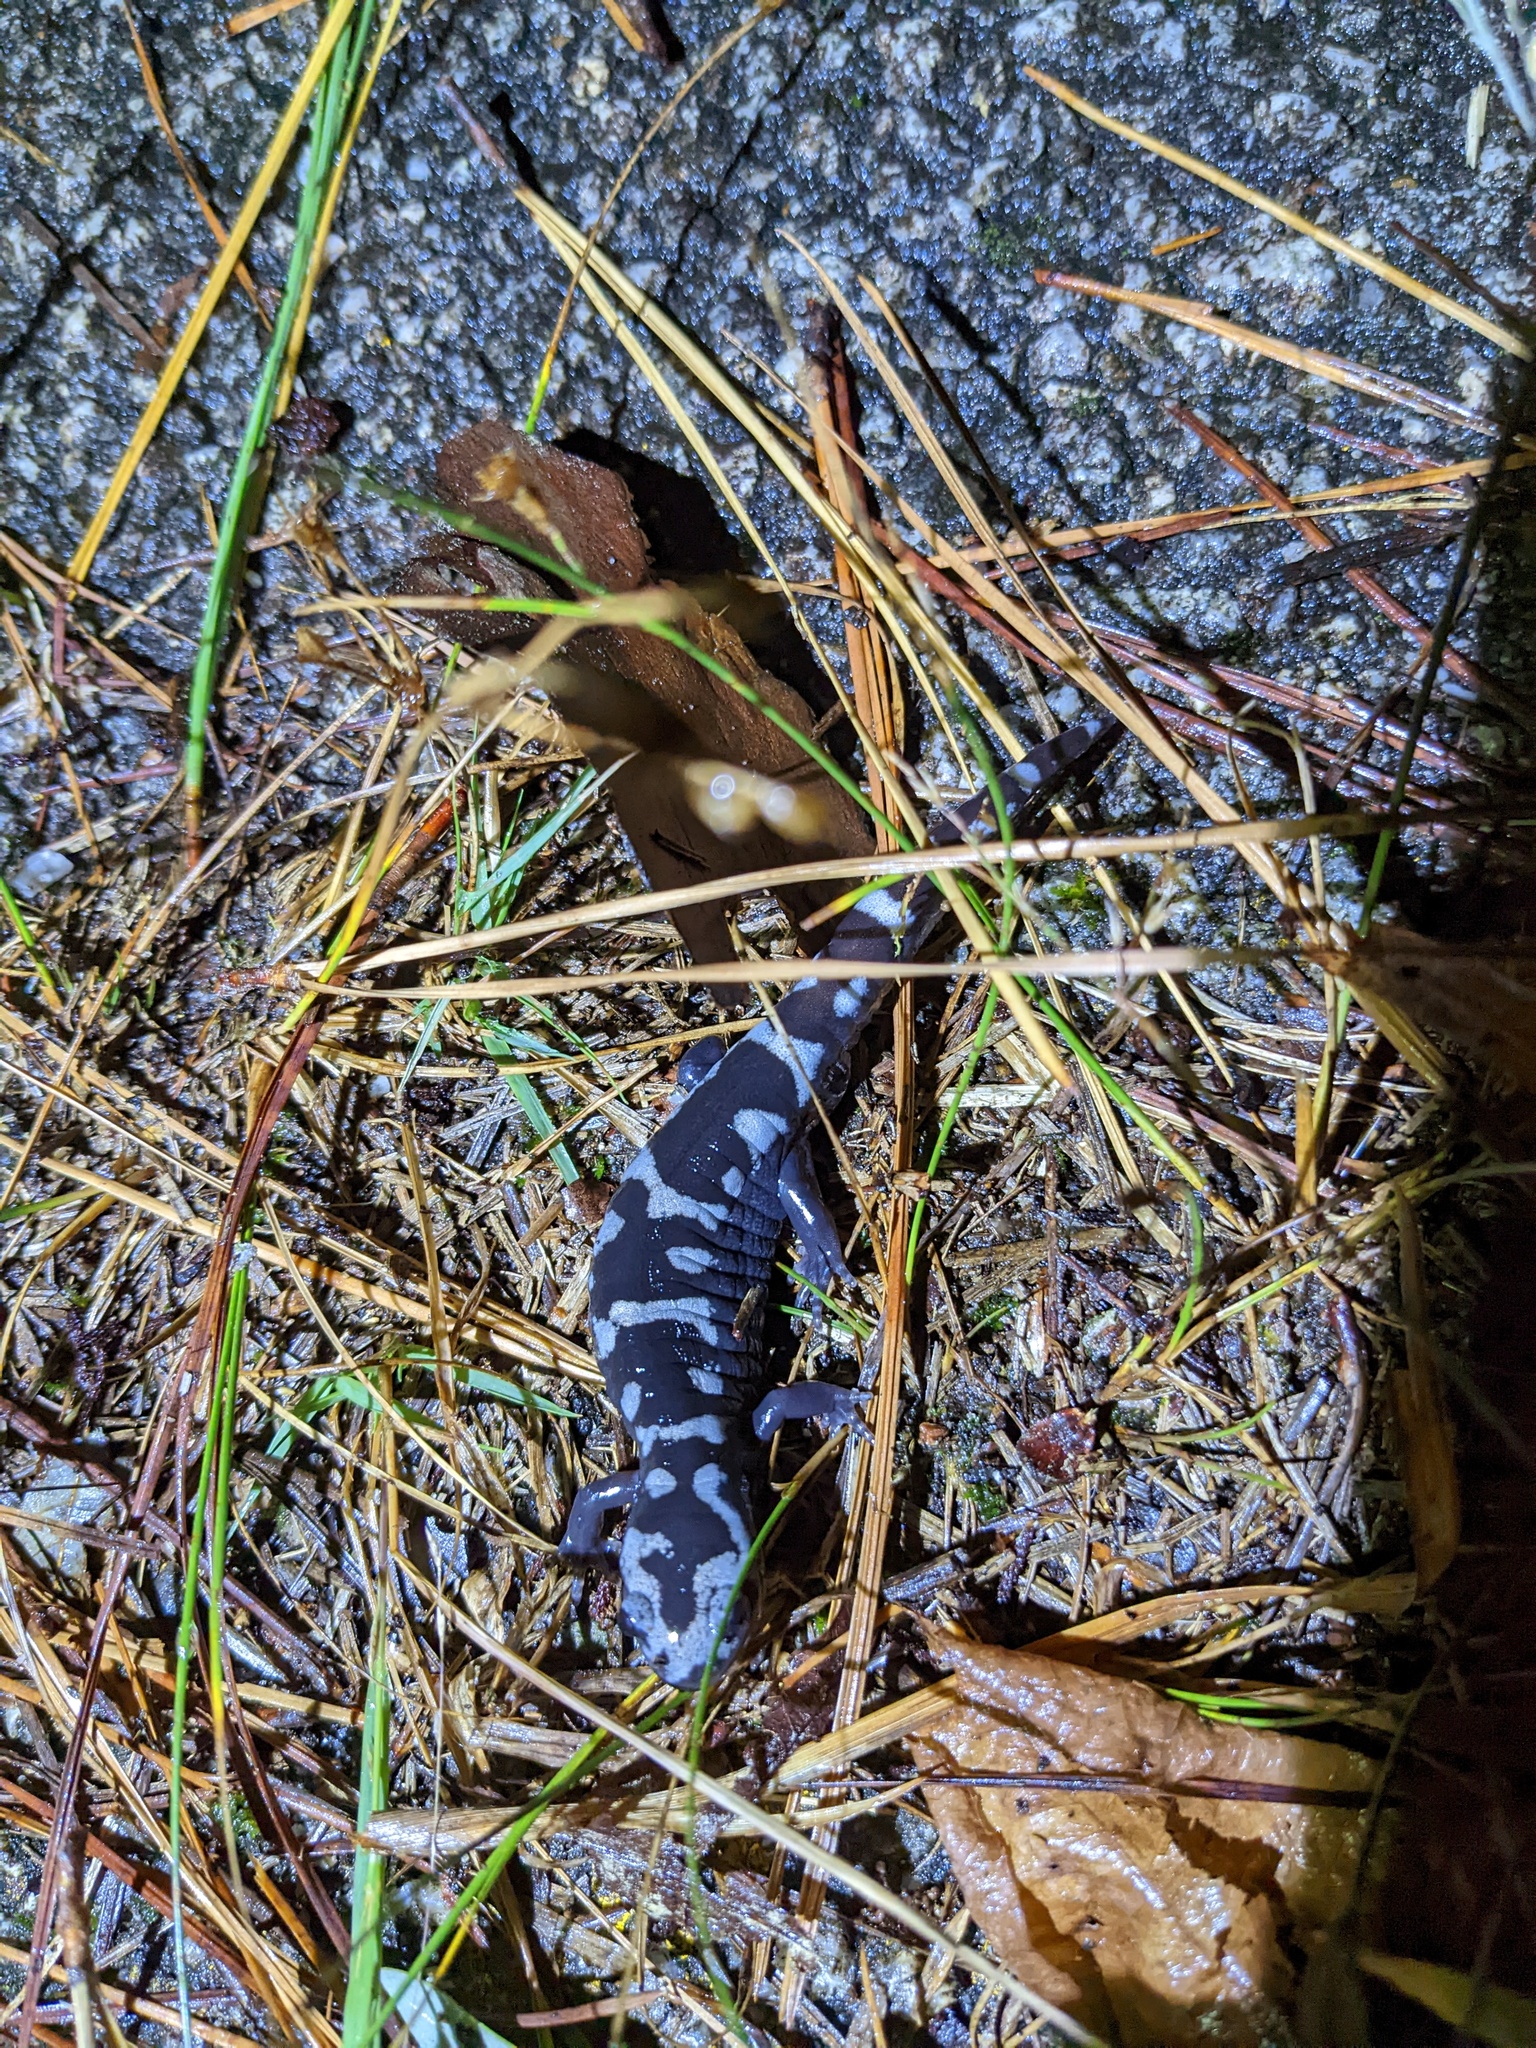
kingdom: Animalia
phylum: Chordata
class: Amphibia
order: Caudata
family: Ambystomatidae
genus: Ambystoma
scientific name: Ambystoma opacum
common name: Marbled salamander
